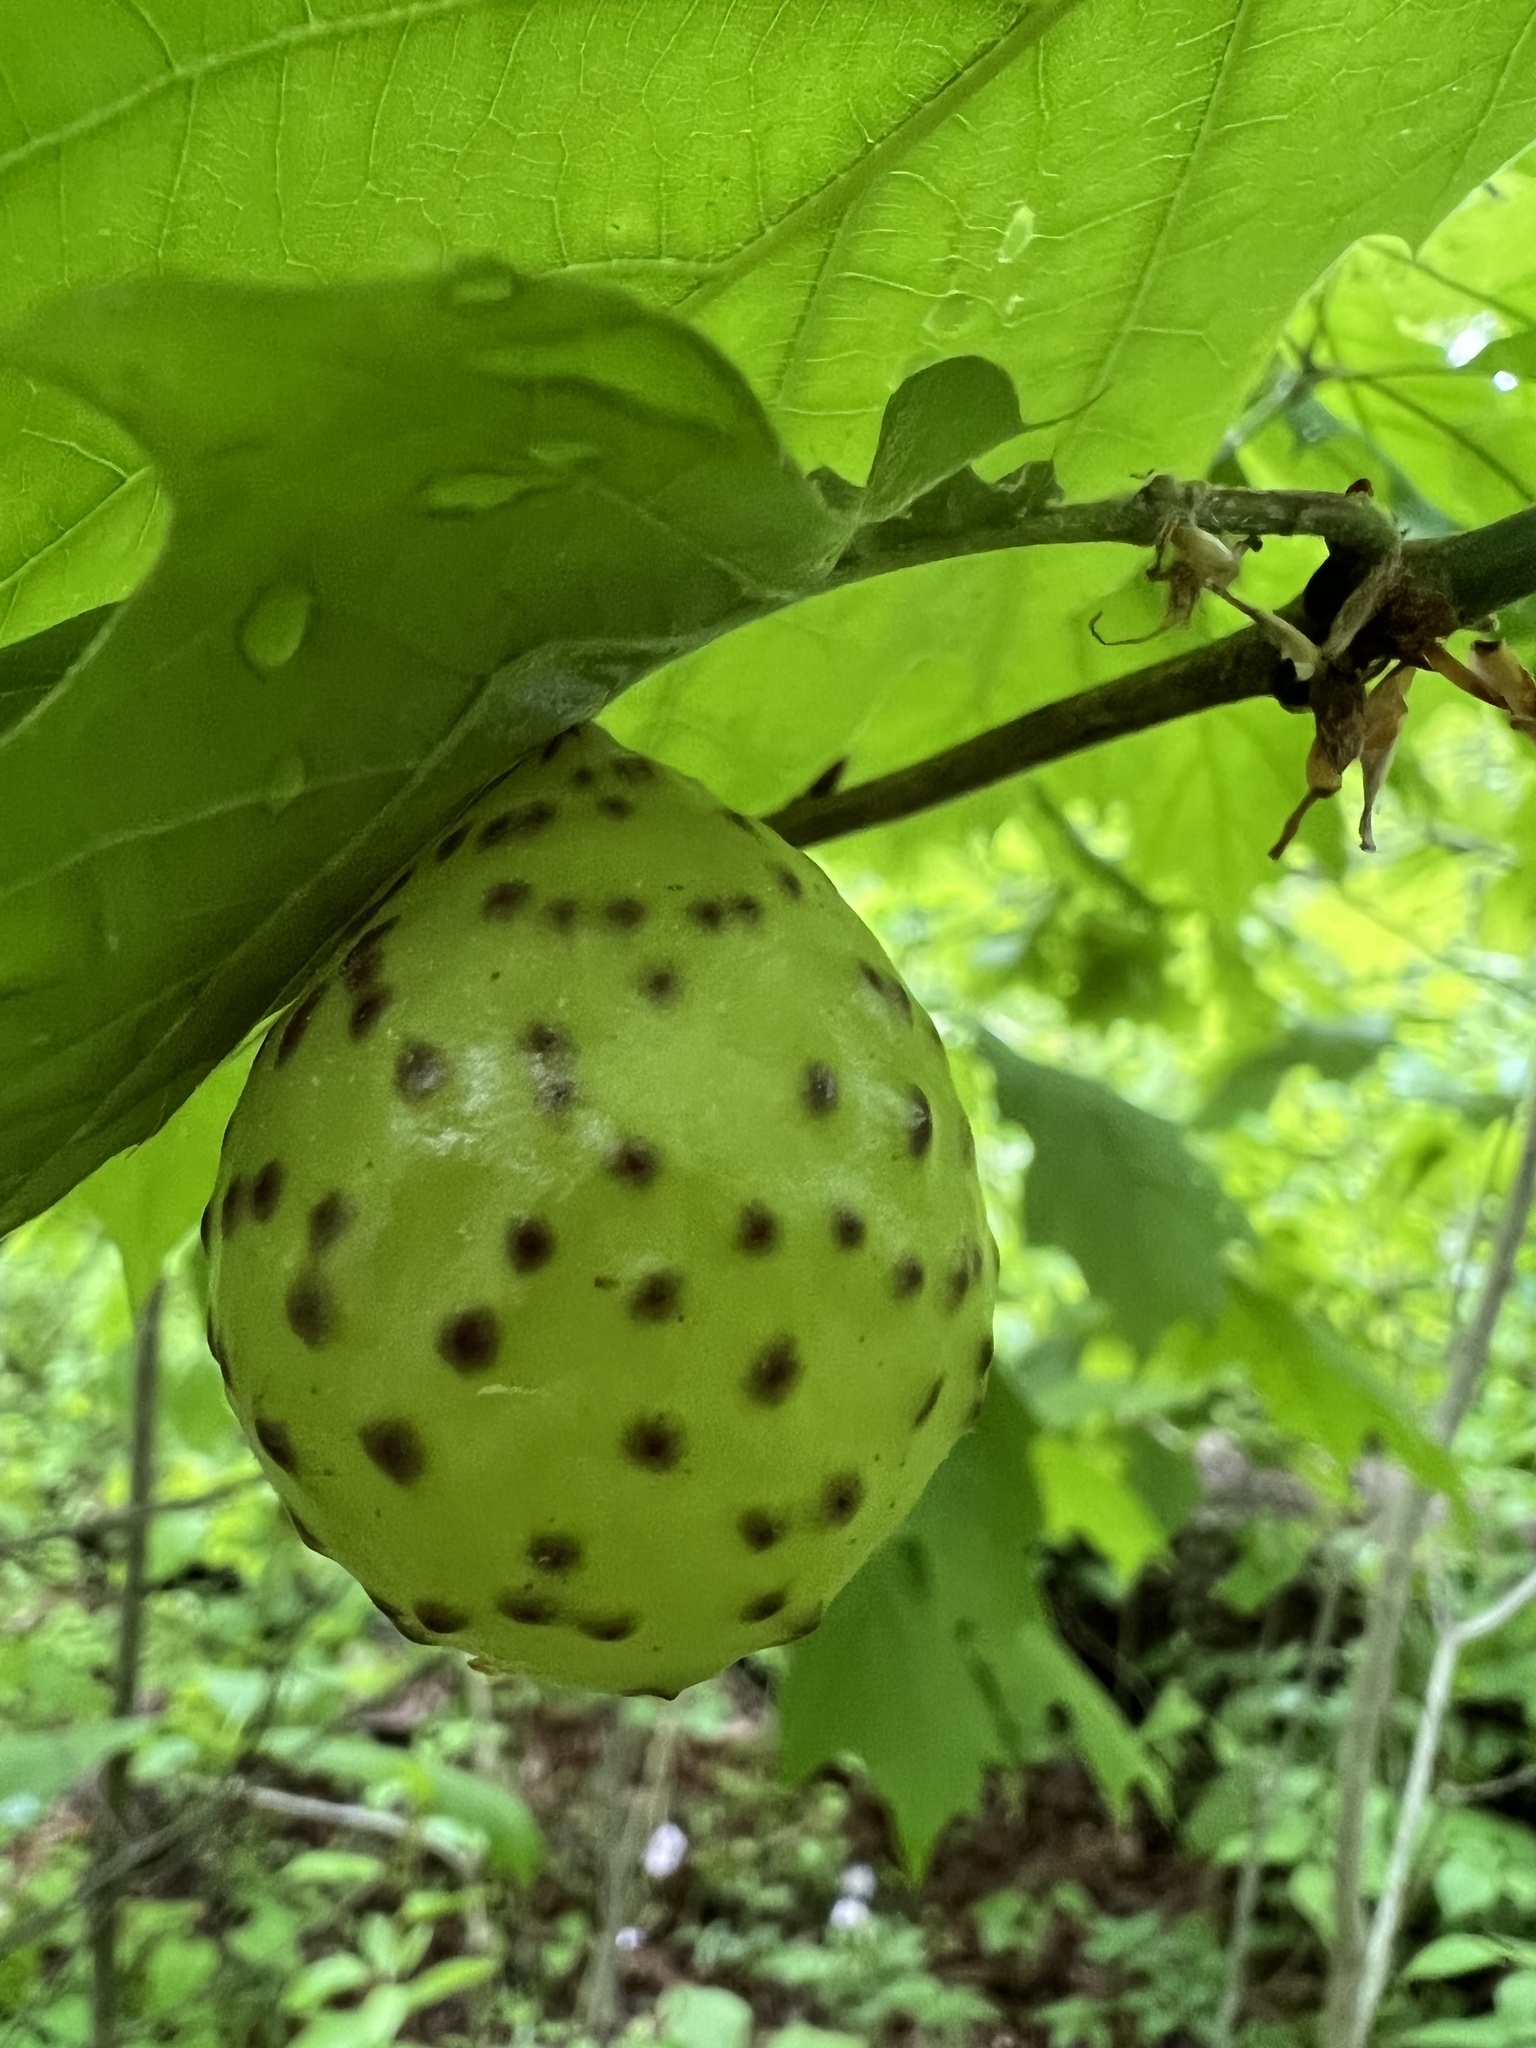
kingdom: Animalia
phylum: Arthropoda
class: Insecta
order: Hymenoptera
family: Cynipidae
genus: Amphibolips
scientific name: Amphibolips
